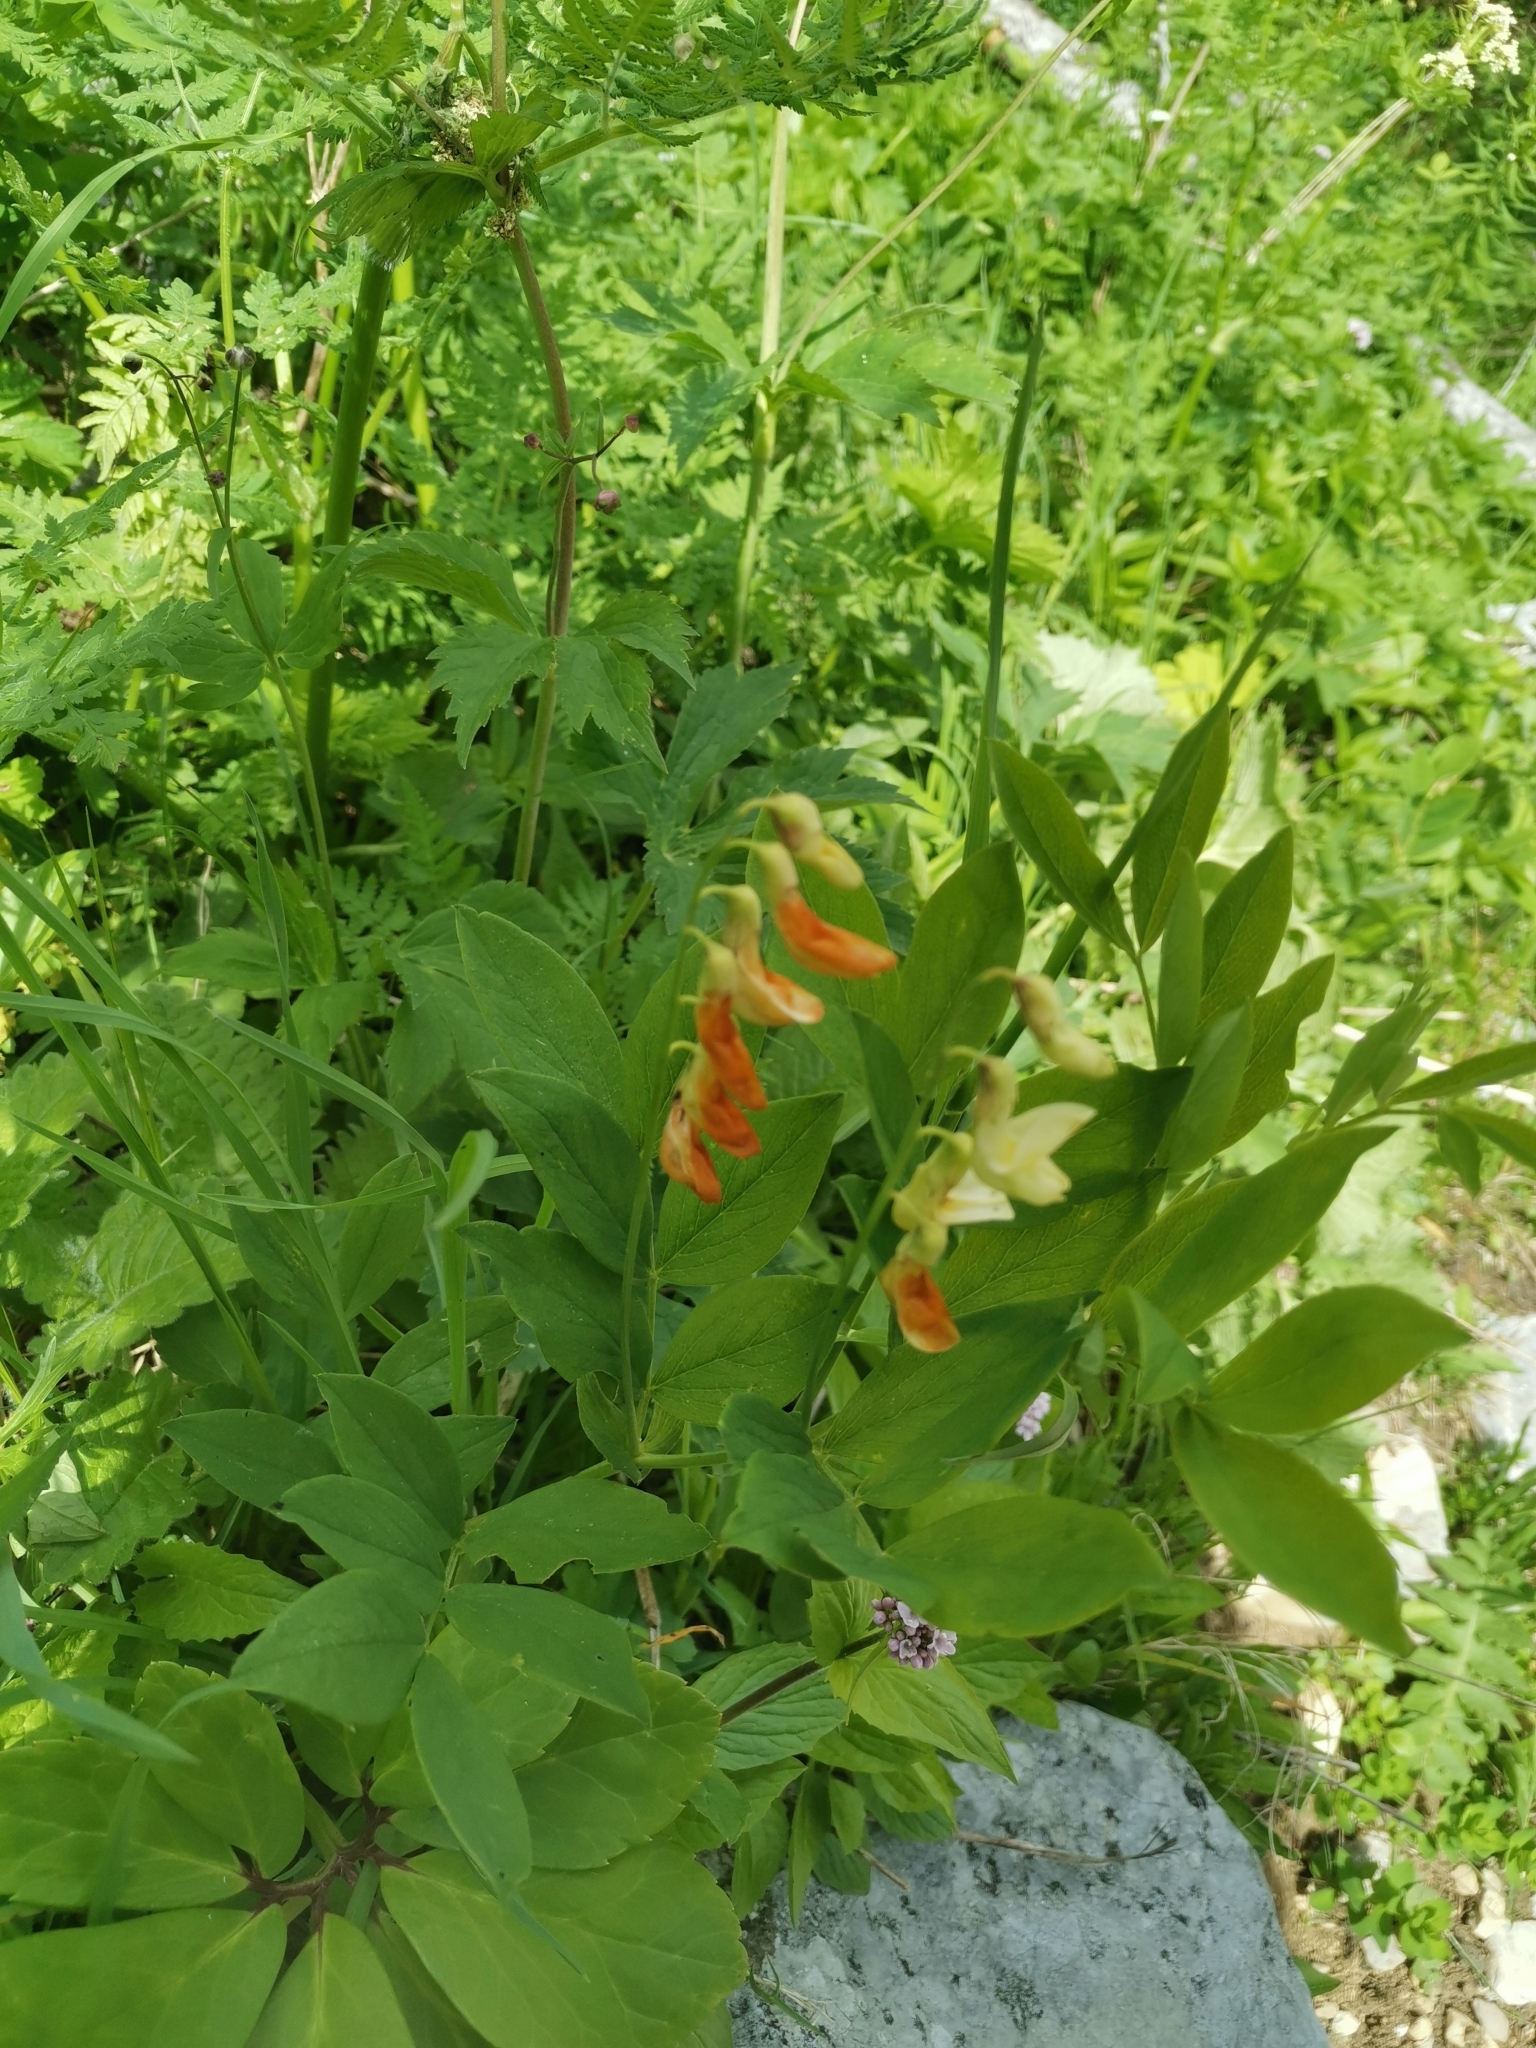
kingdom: Plantae
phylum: Tracheophyta
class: Magnoliopsida
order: Fabales
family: Fabaceae
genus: Lathyrus
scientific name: Lathyrus laevigatus
